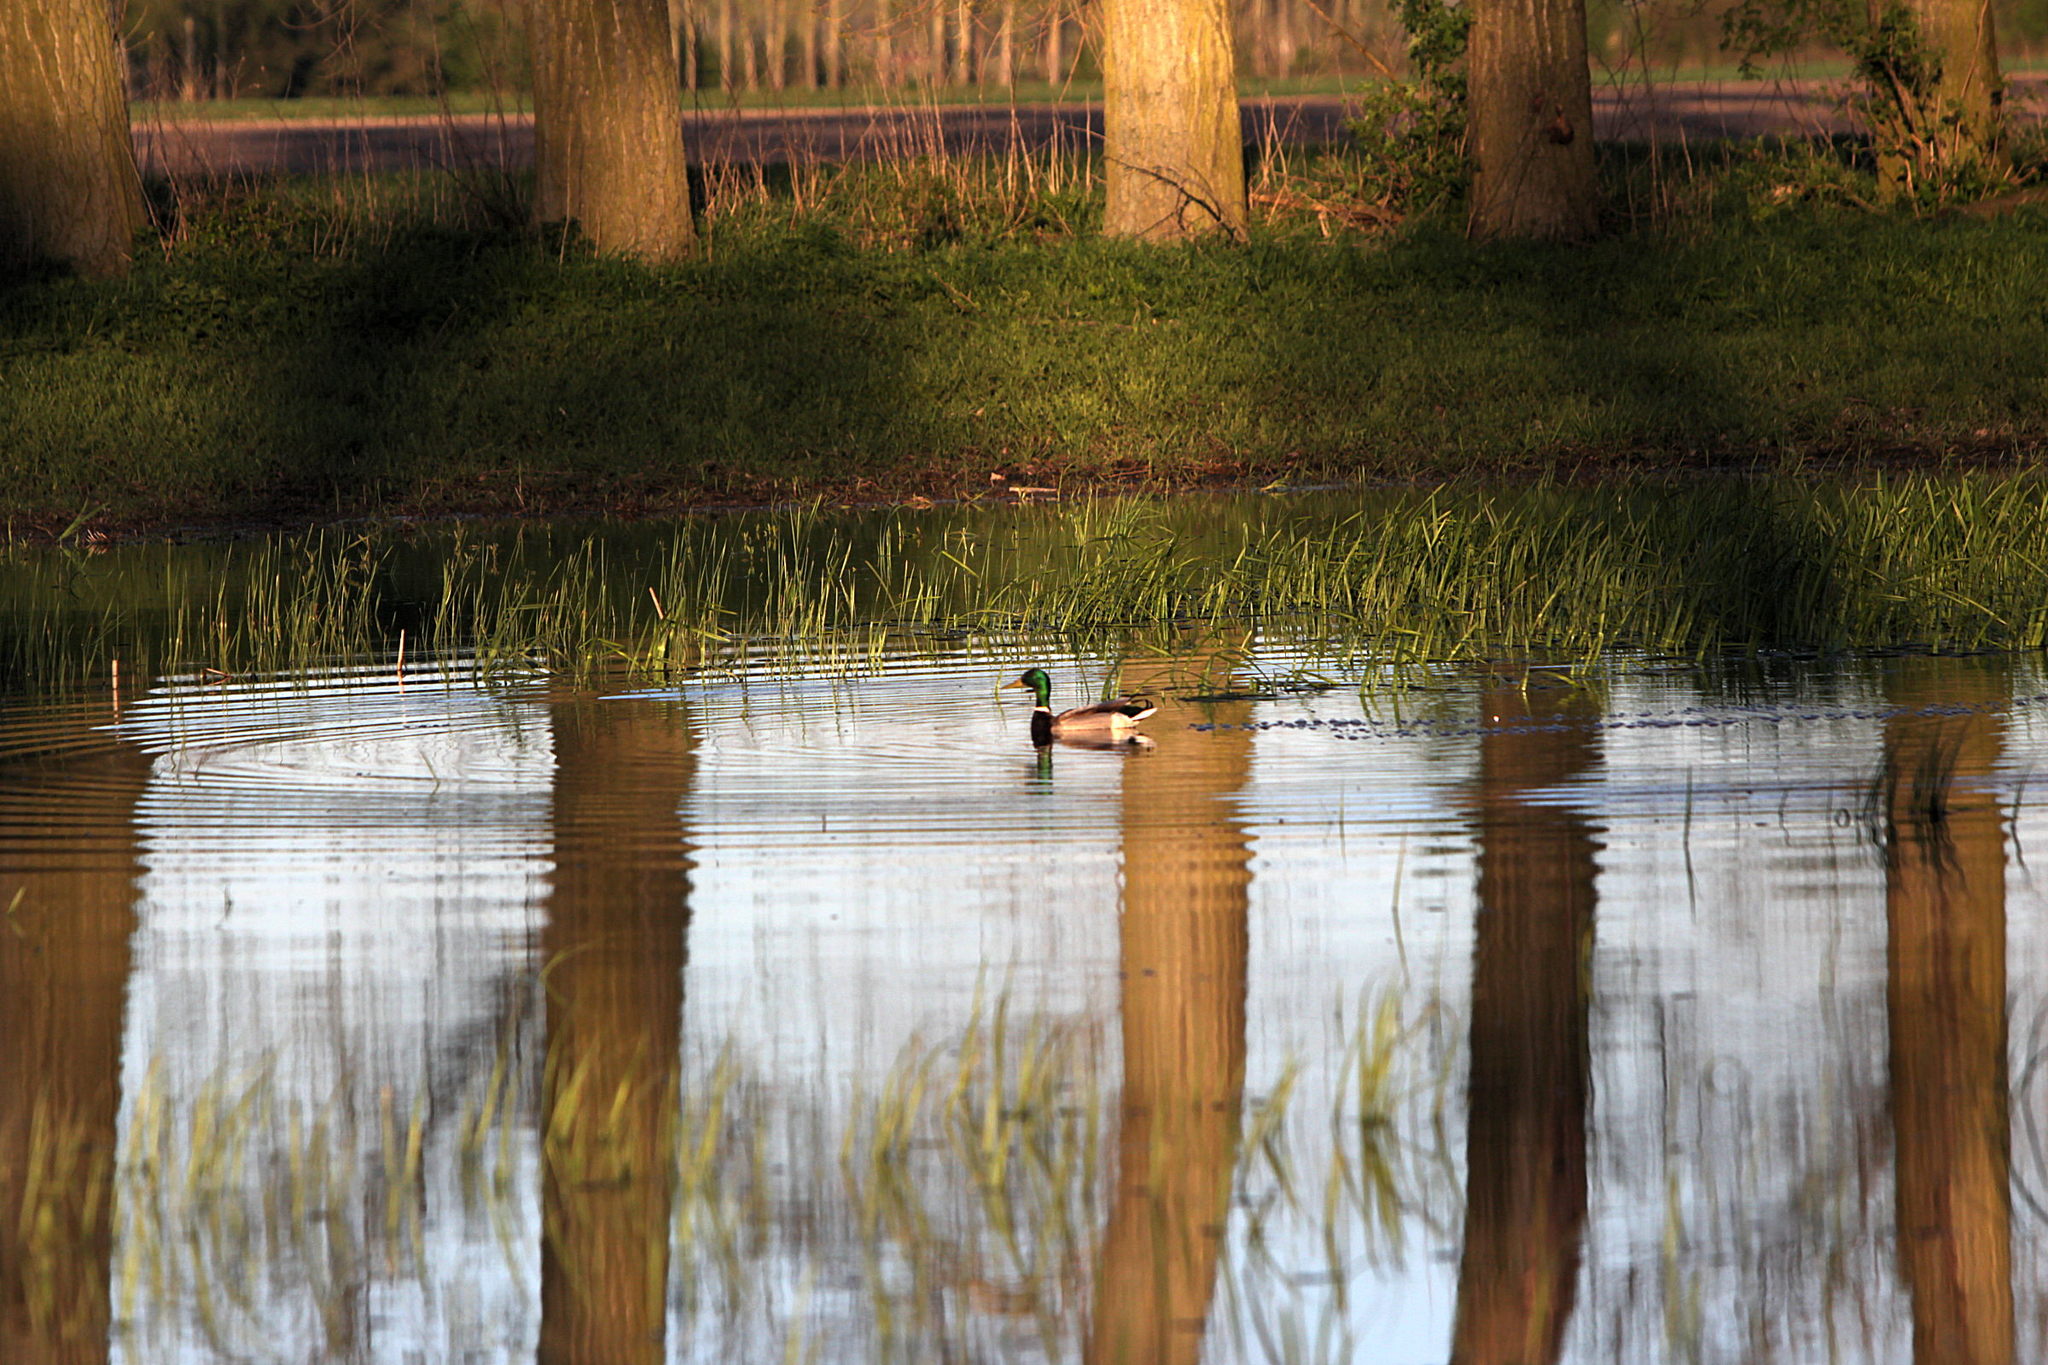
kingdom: Animalia
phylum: Chordata
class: Aves
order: Anseriformes
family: Anatidae
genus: Anas
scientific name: Anas platyrhynchos
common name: Mallard
